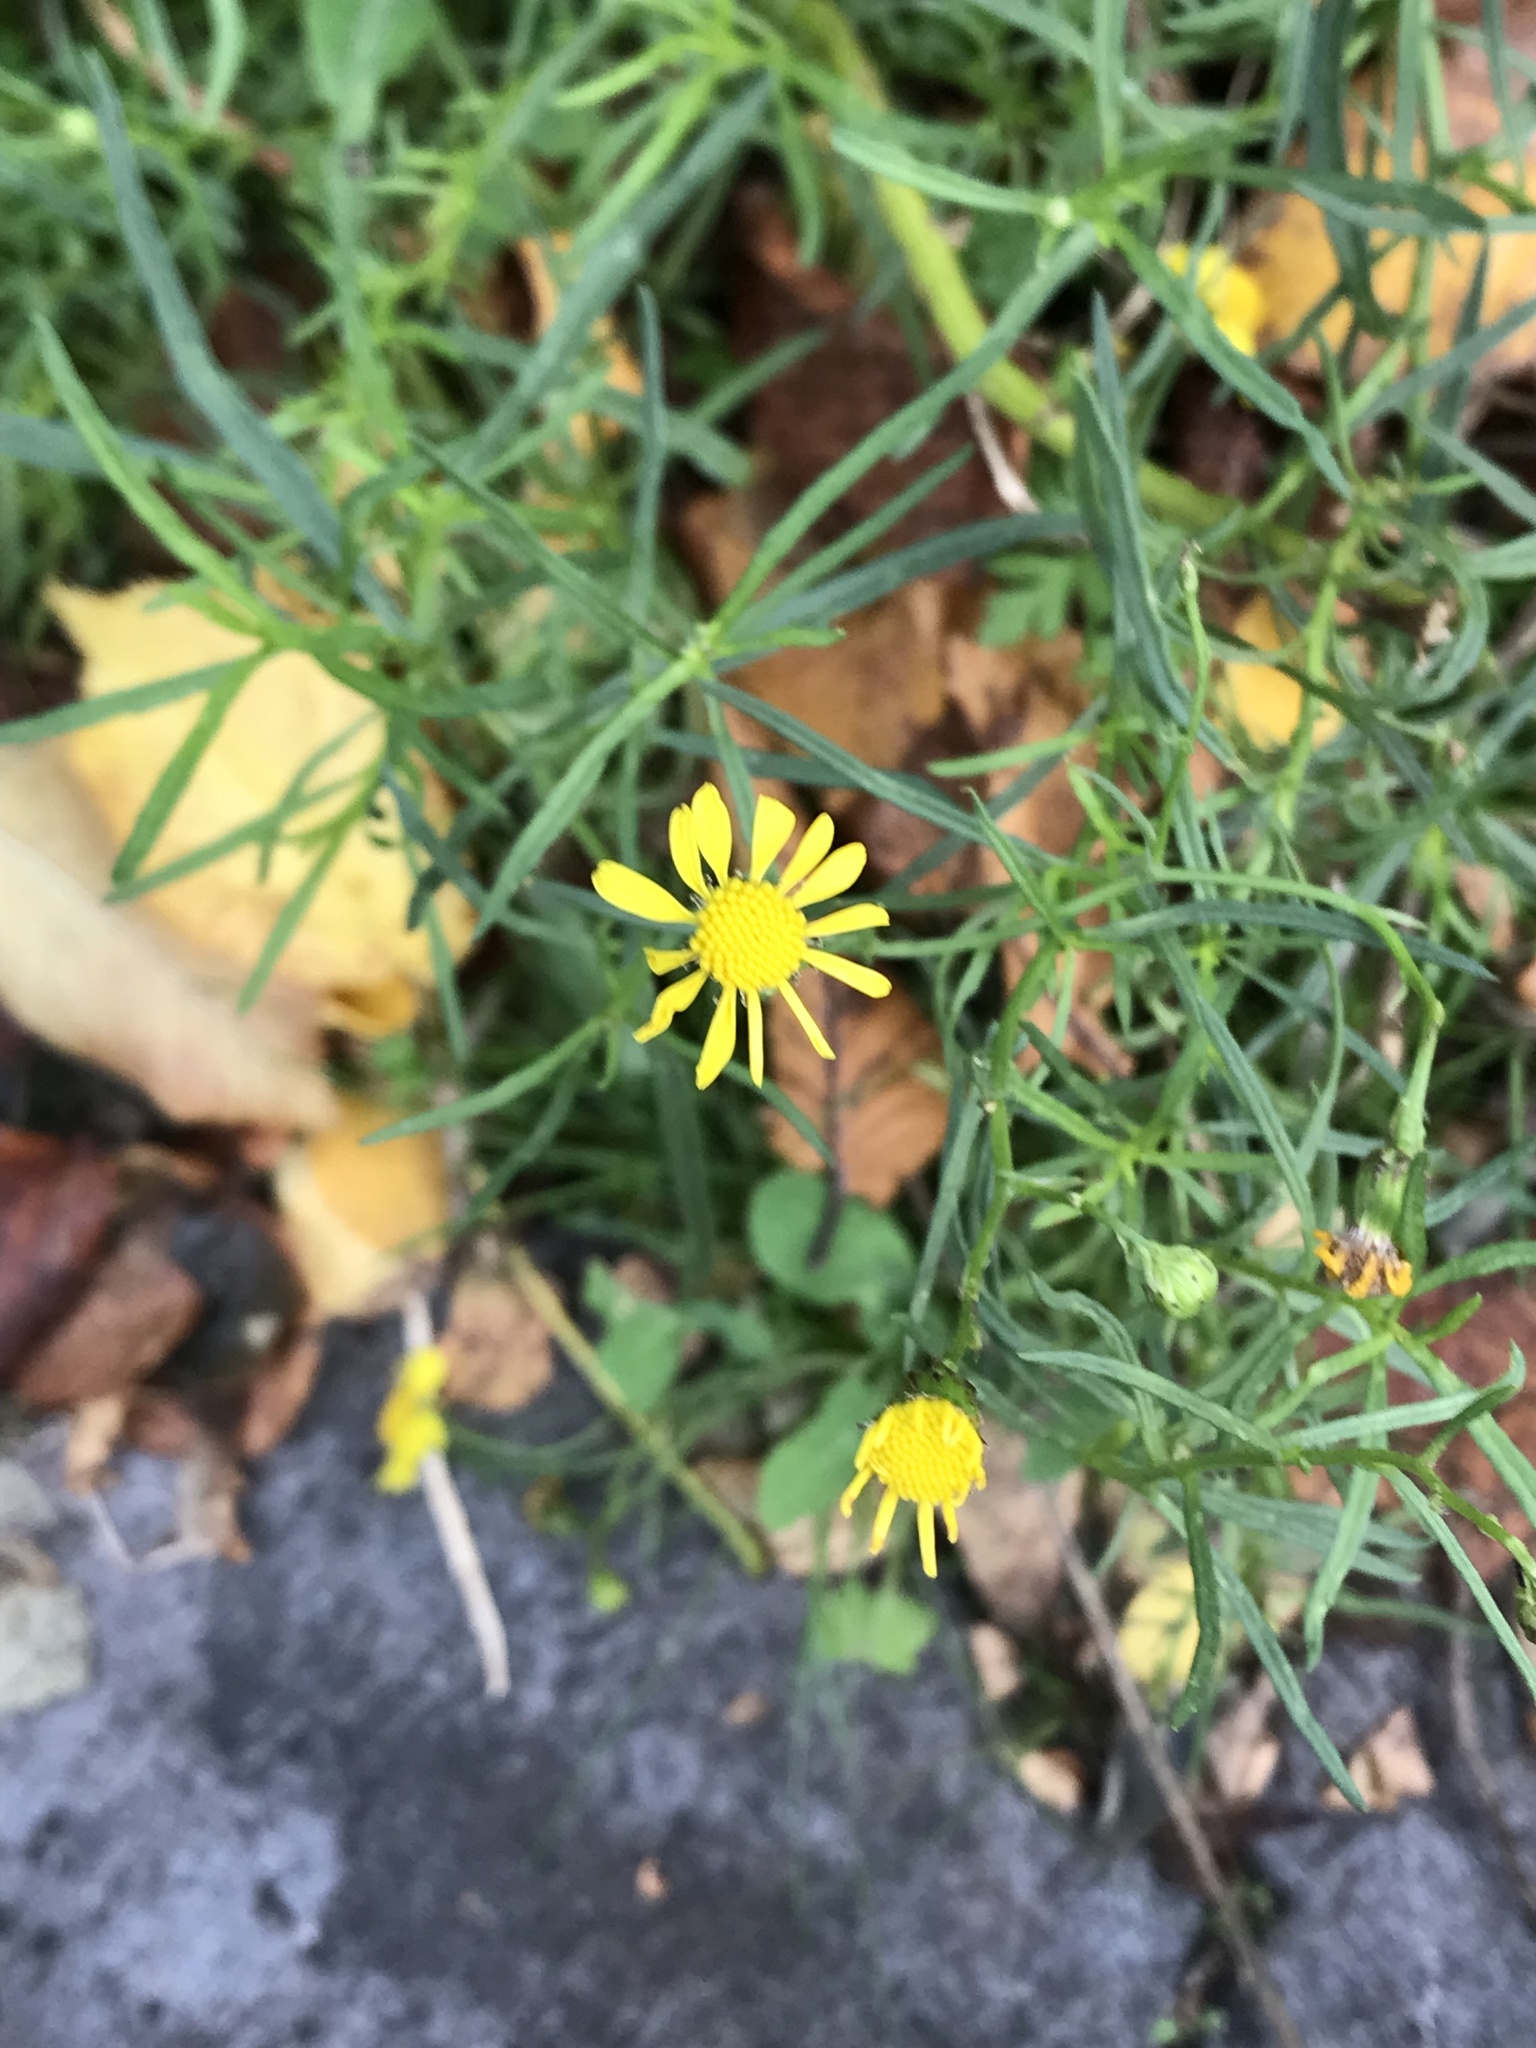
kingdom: Plantae
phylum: Tracheophyta
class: Magnoliopsida
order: Asterales
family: Asteraceae
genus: Senecio
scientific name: Senecio inaequidens
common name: Narrow-leaved ragwort
